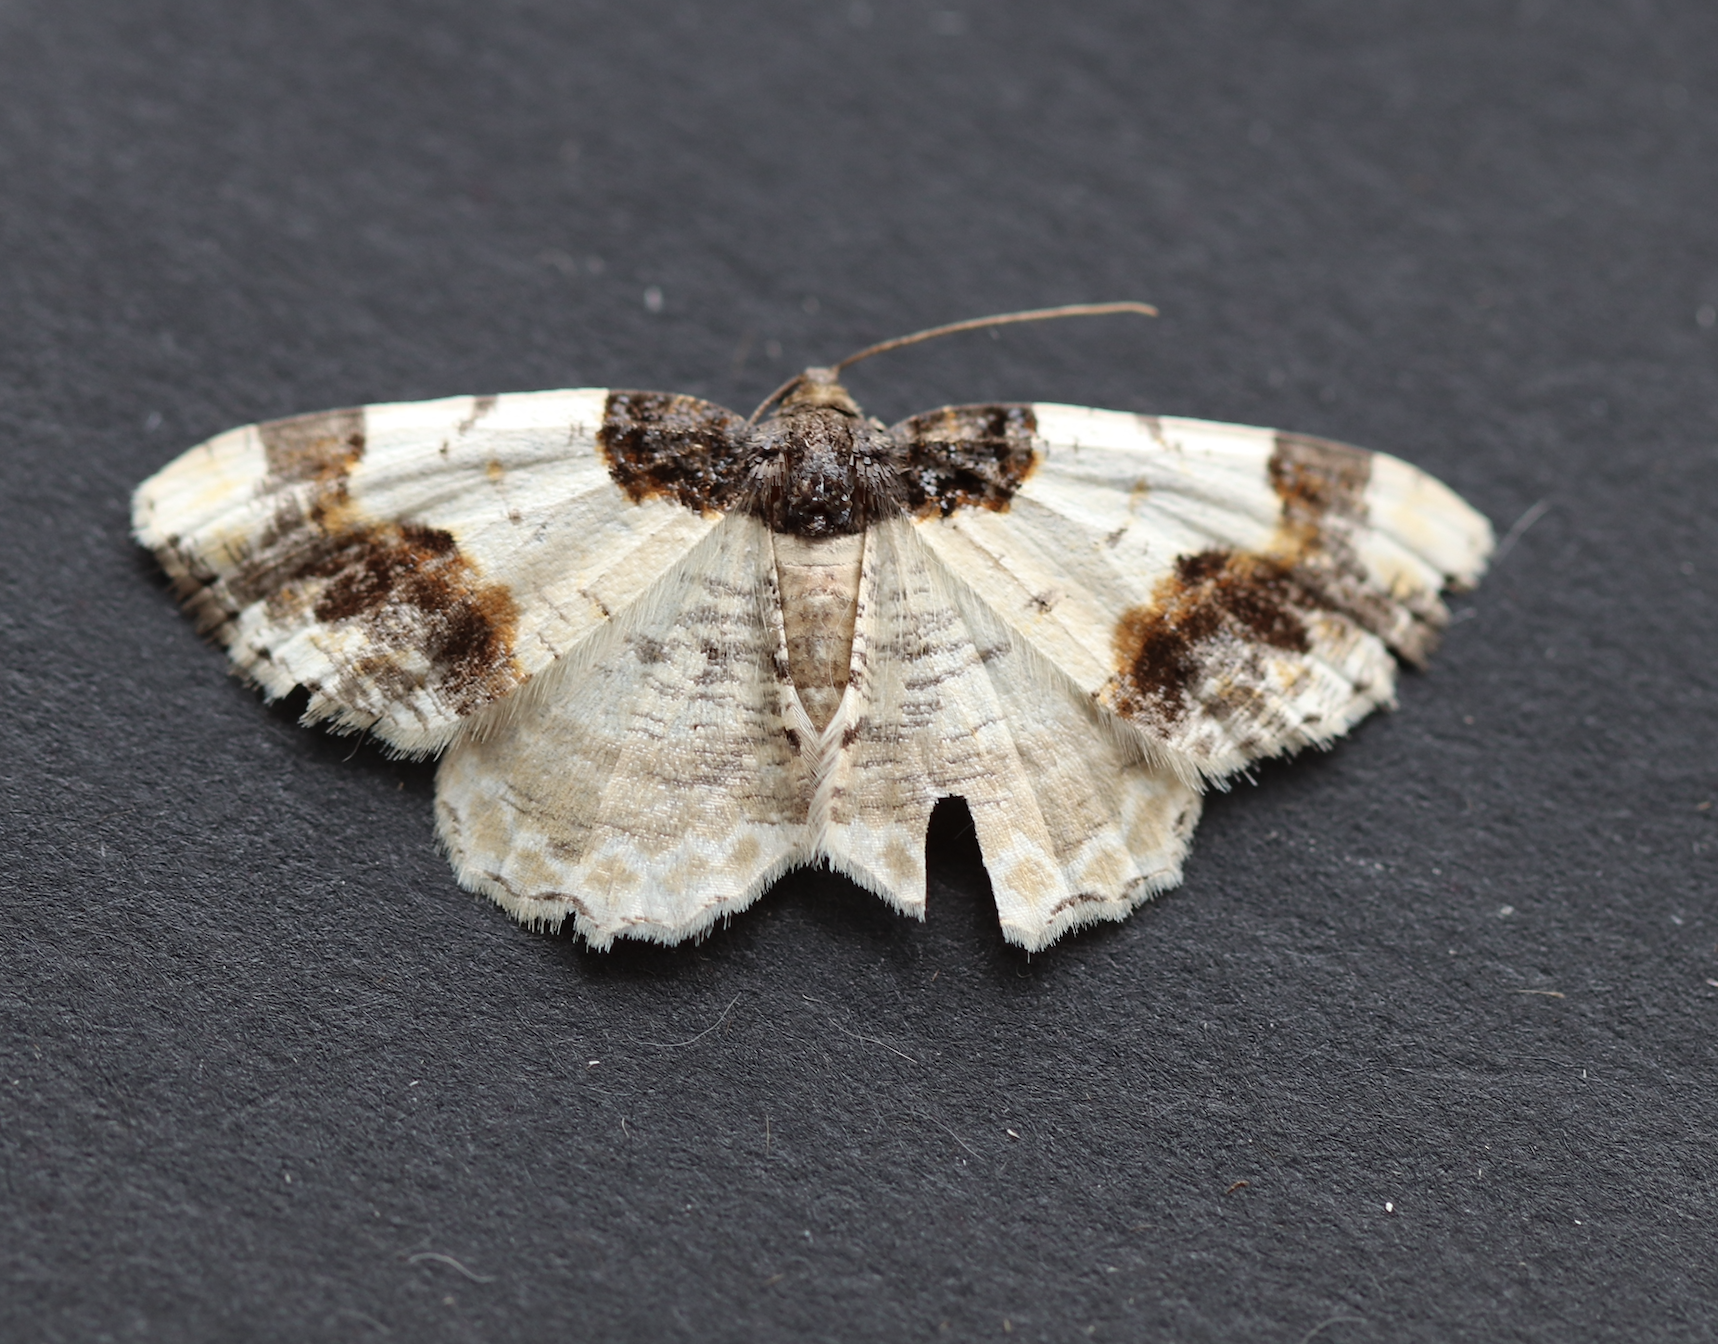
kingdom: Animalia
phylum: Arthropoda
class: Insecta
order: Lepidoptera
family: Geometridae
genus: Ligdia
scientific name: Ligdia adustata
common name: Scorched carpet
